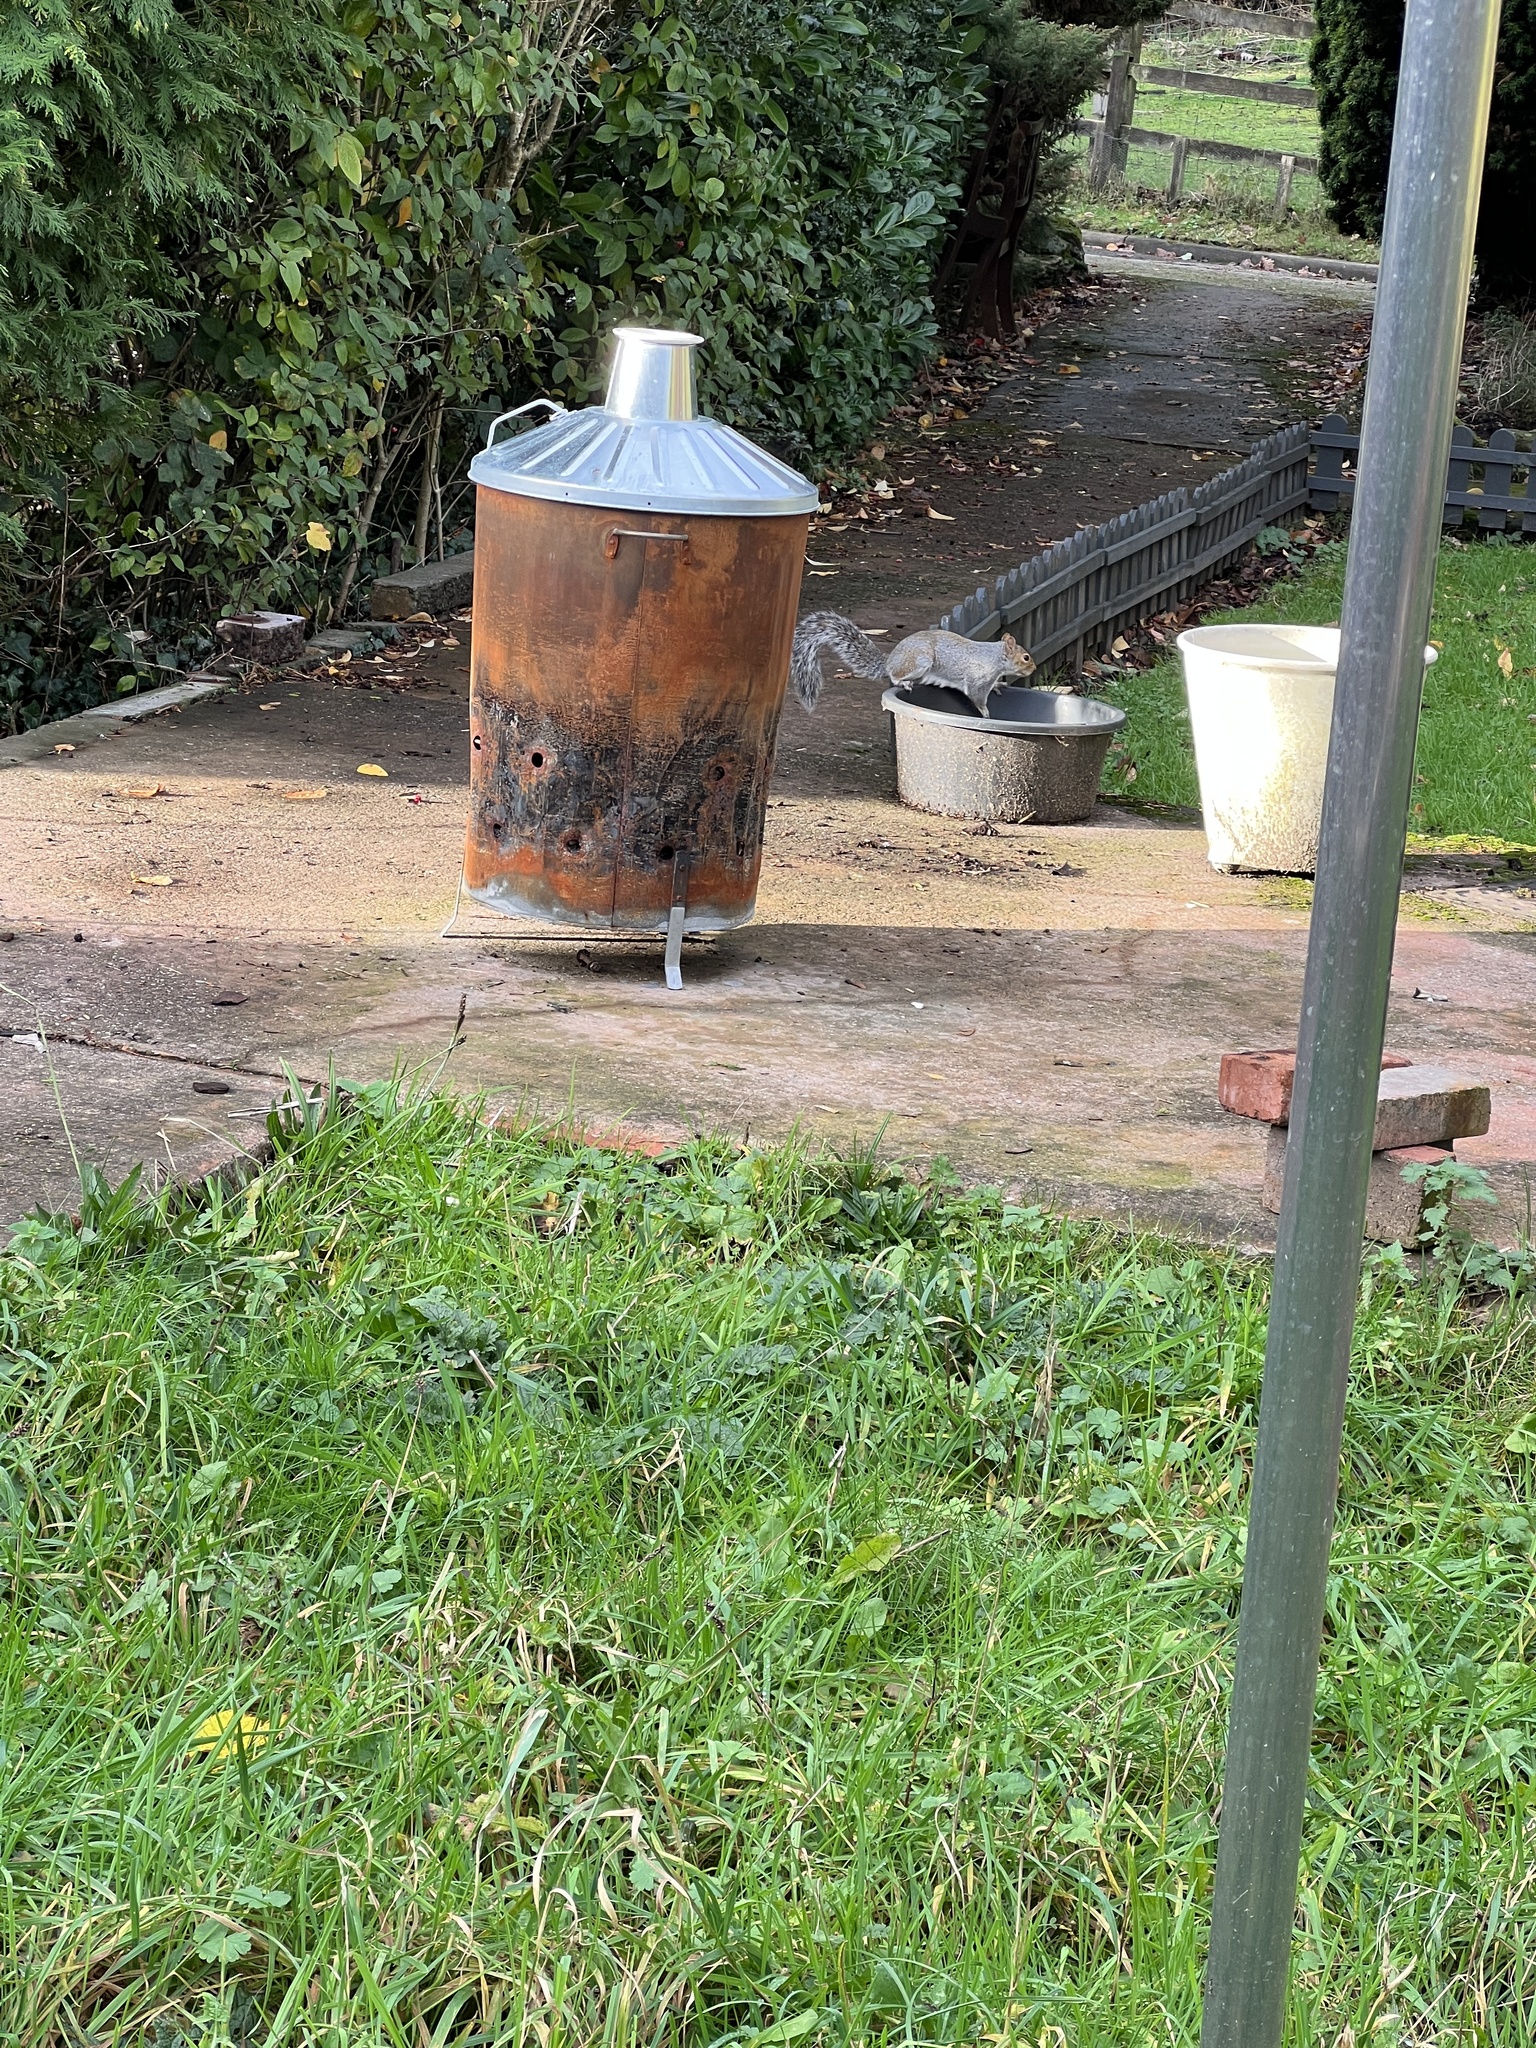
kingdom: Animalia
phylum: Chordata
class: Mammalia
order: Rodentia
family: Sciuridae
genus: Sciurus
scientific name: Sciurus carolinensis
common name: Eastern gray squirrel
